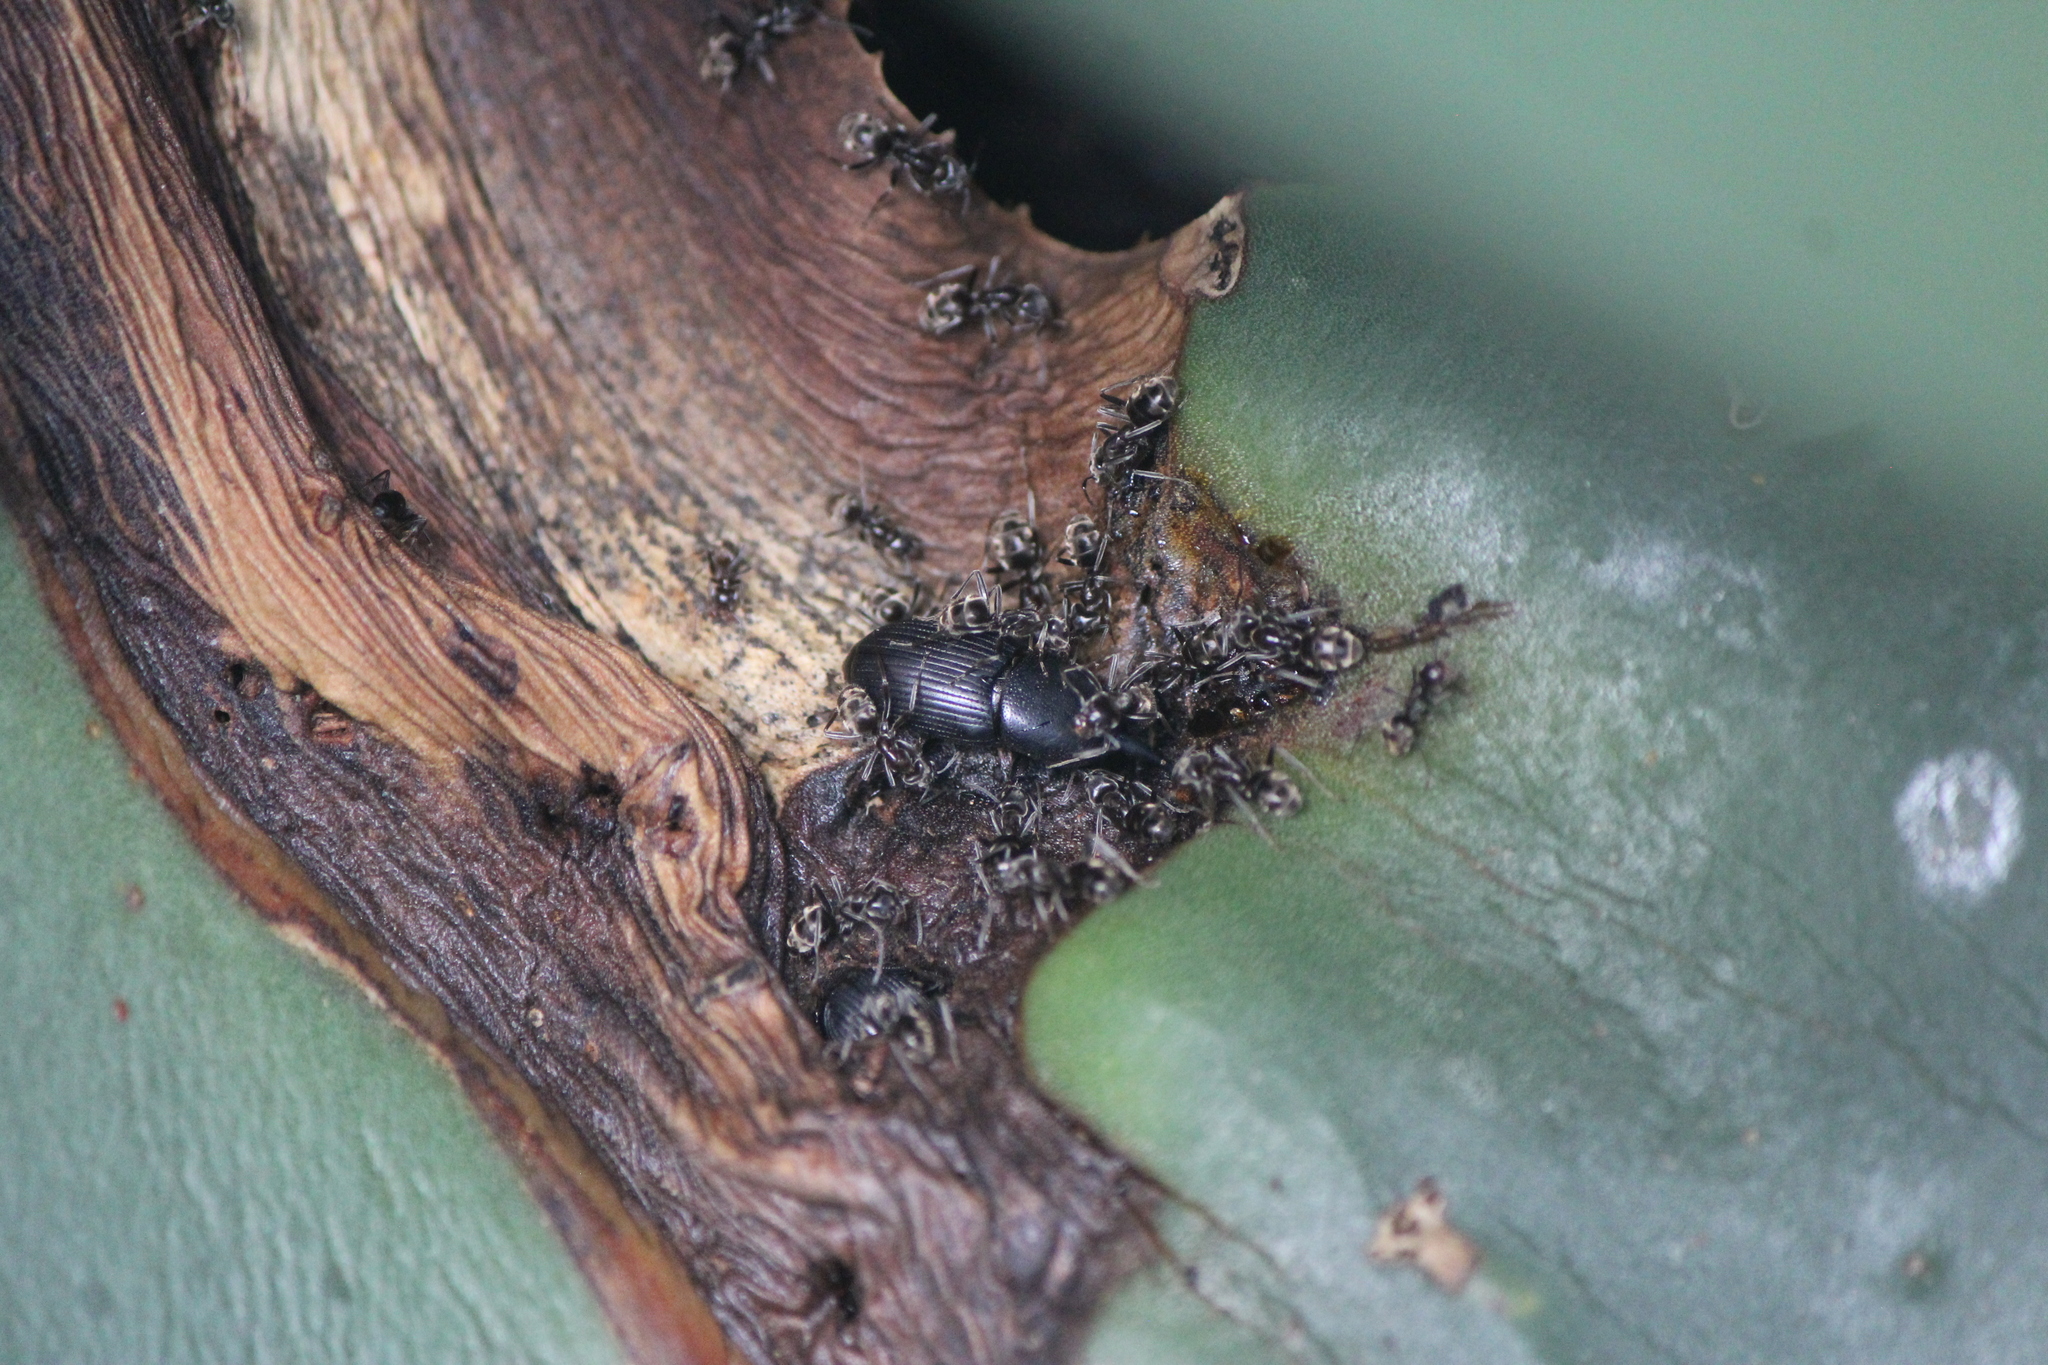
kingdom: Animalia
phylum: Arthropoda
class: Insecta
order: Coleoptera
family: Dryophthoridae
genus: Scyphophorus
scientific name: Scyphophorus acupunctatus
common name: Weevil
